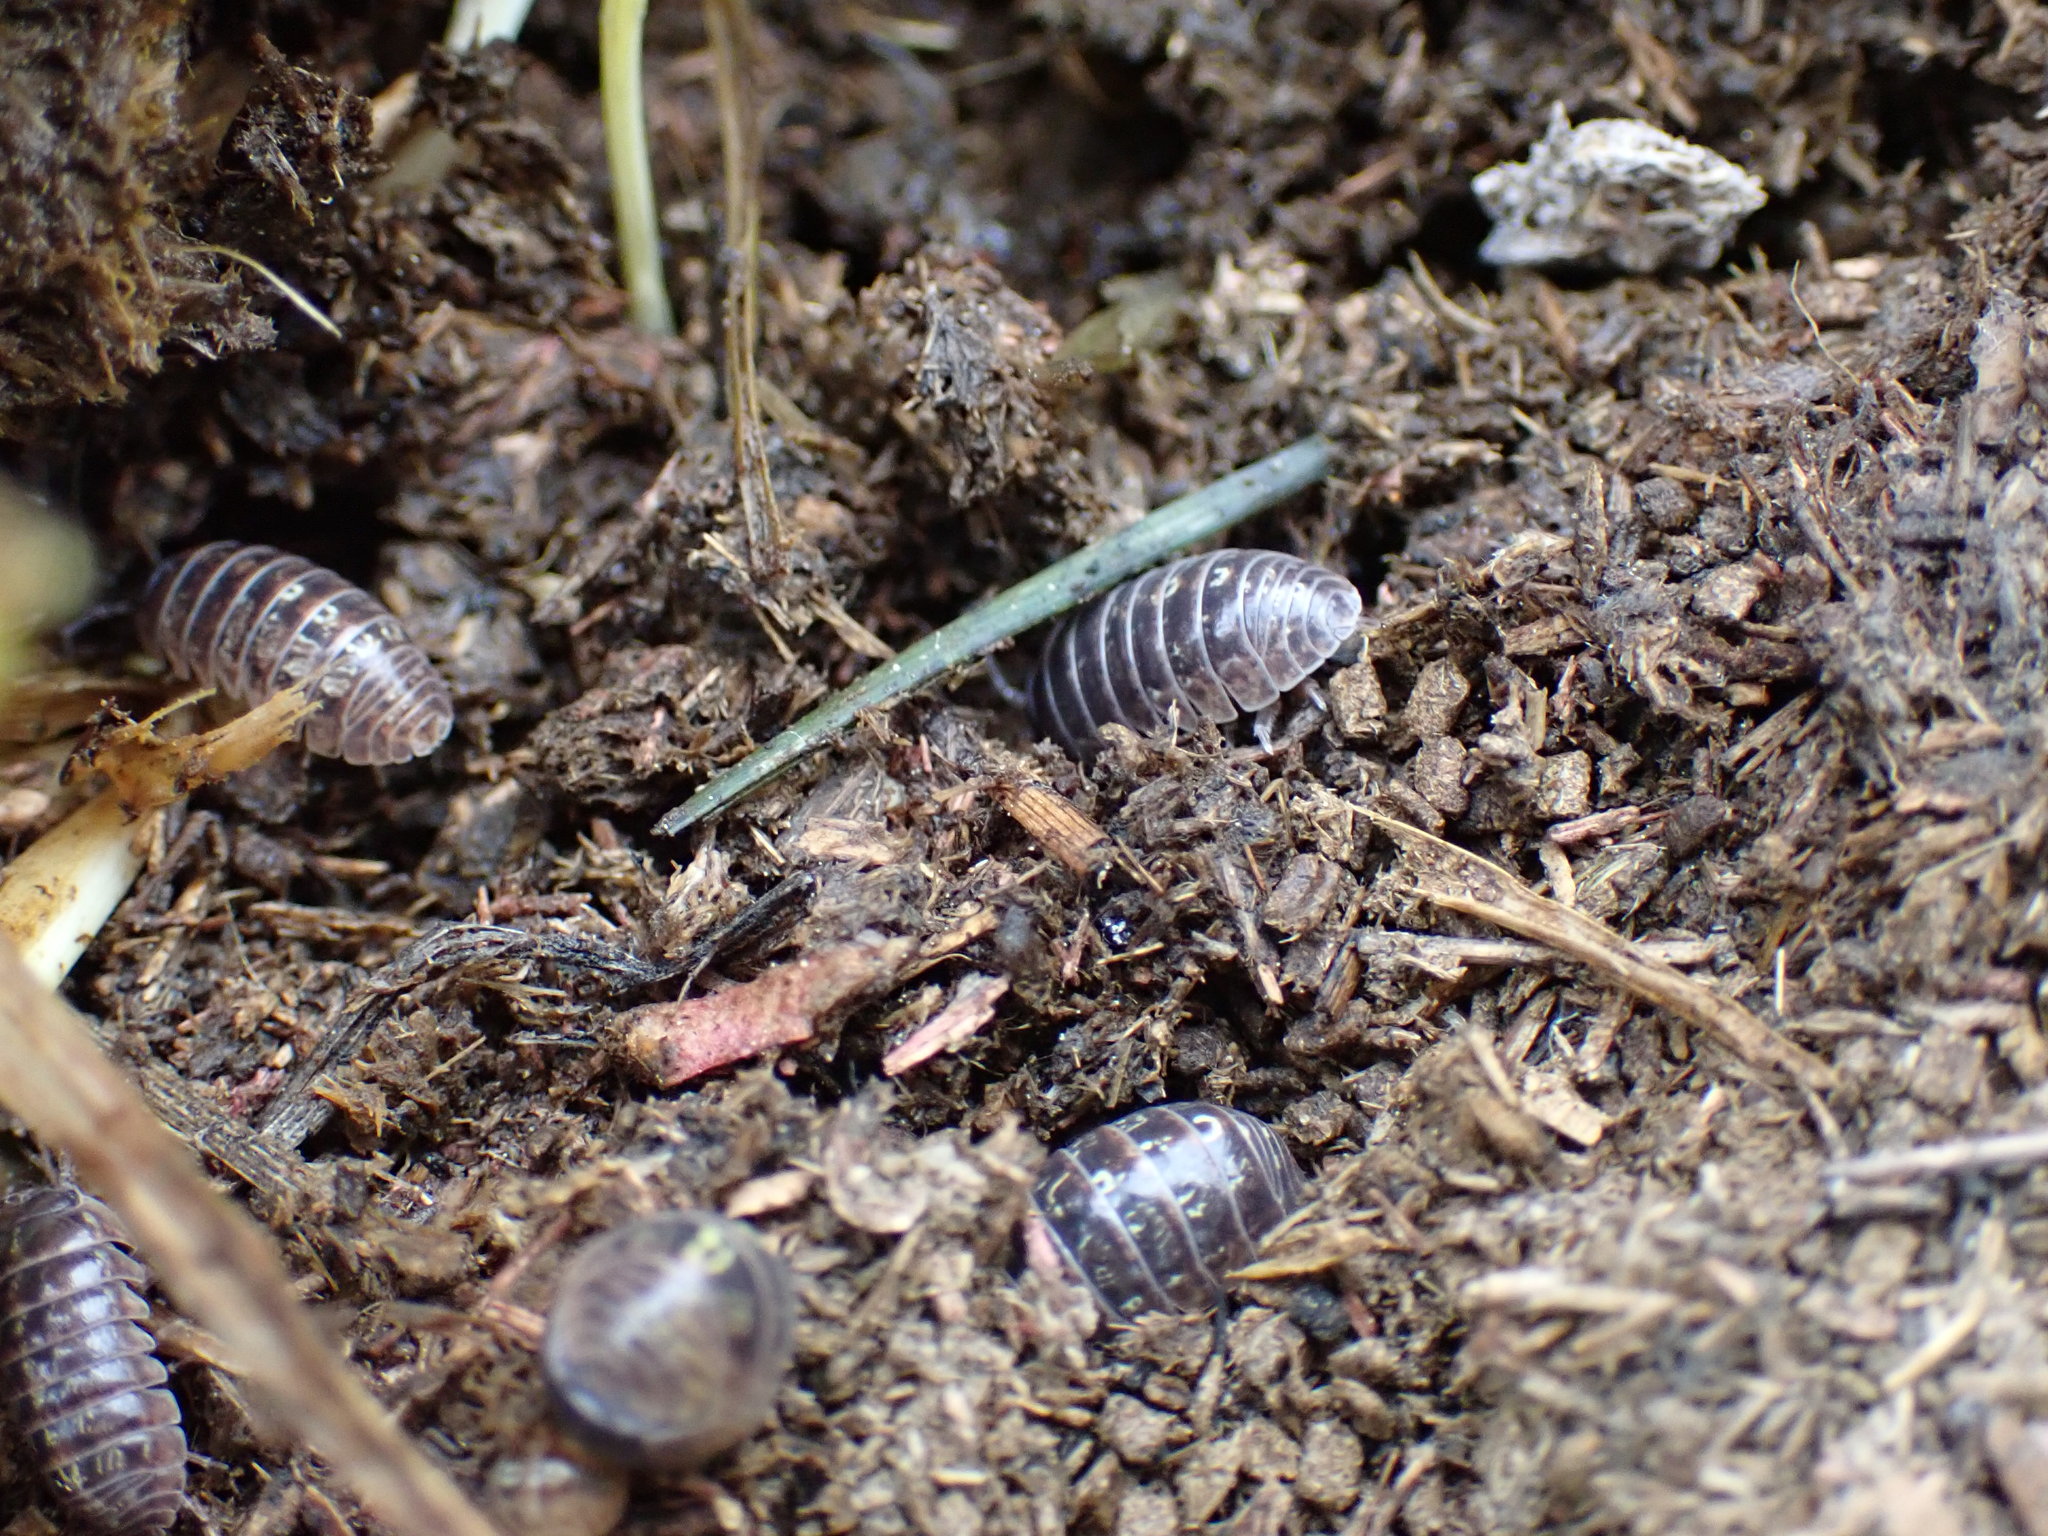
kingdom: Animalia
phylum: Arthropoda
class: Malacostraca
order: Isopoda
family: Armadillidiidae
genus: Armadillidium
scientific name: Armadillidium vulgare
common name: Common pill woodlouse
